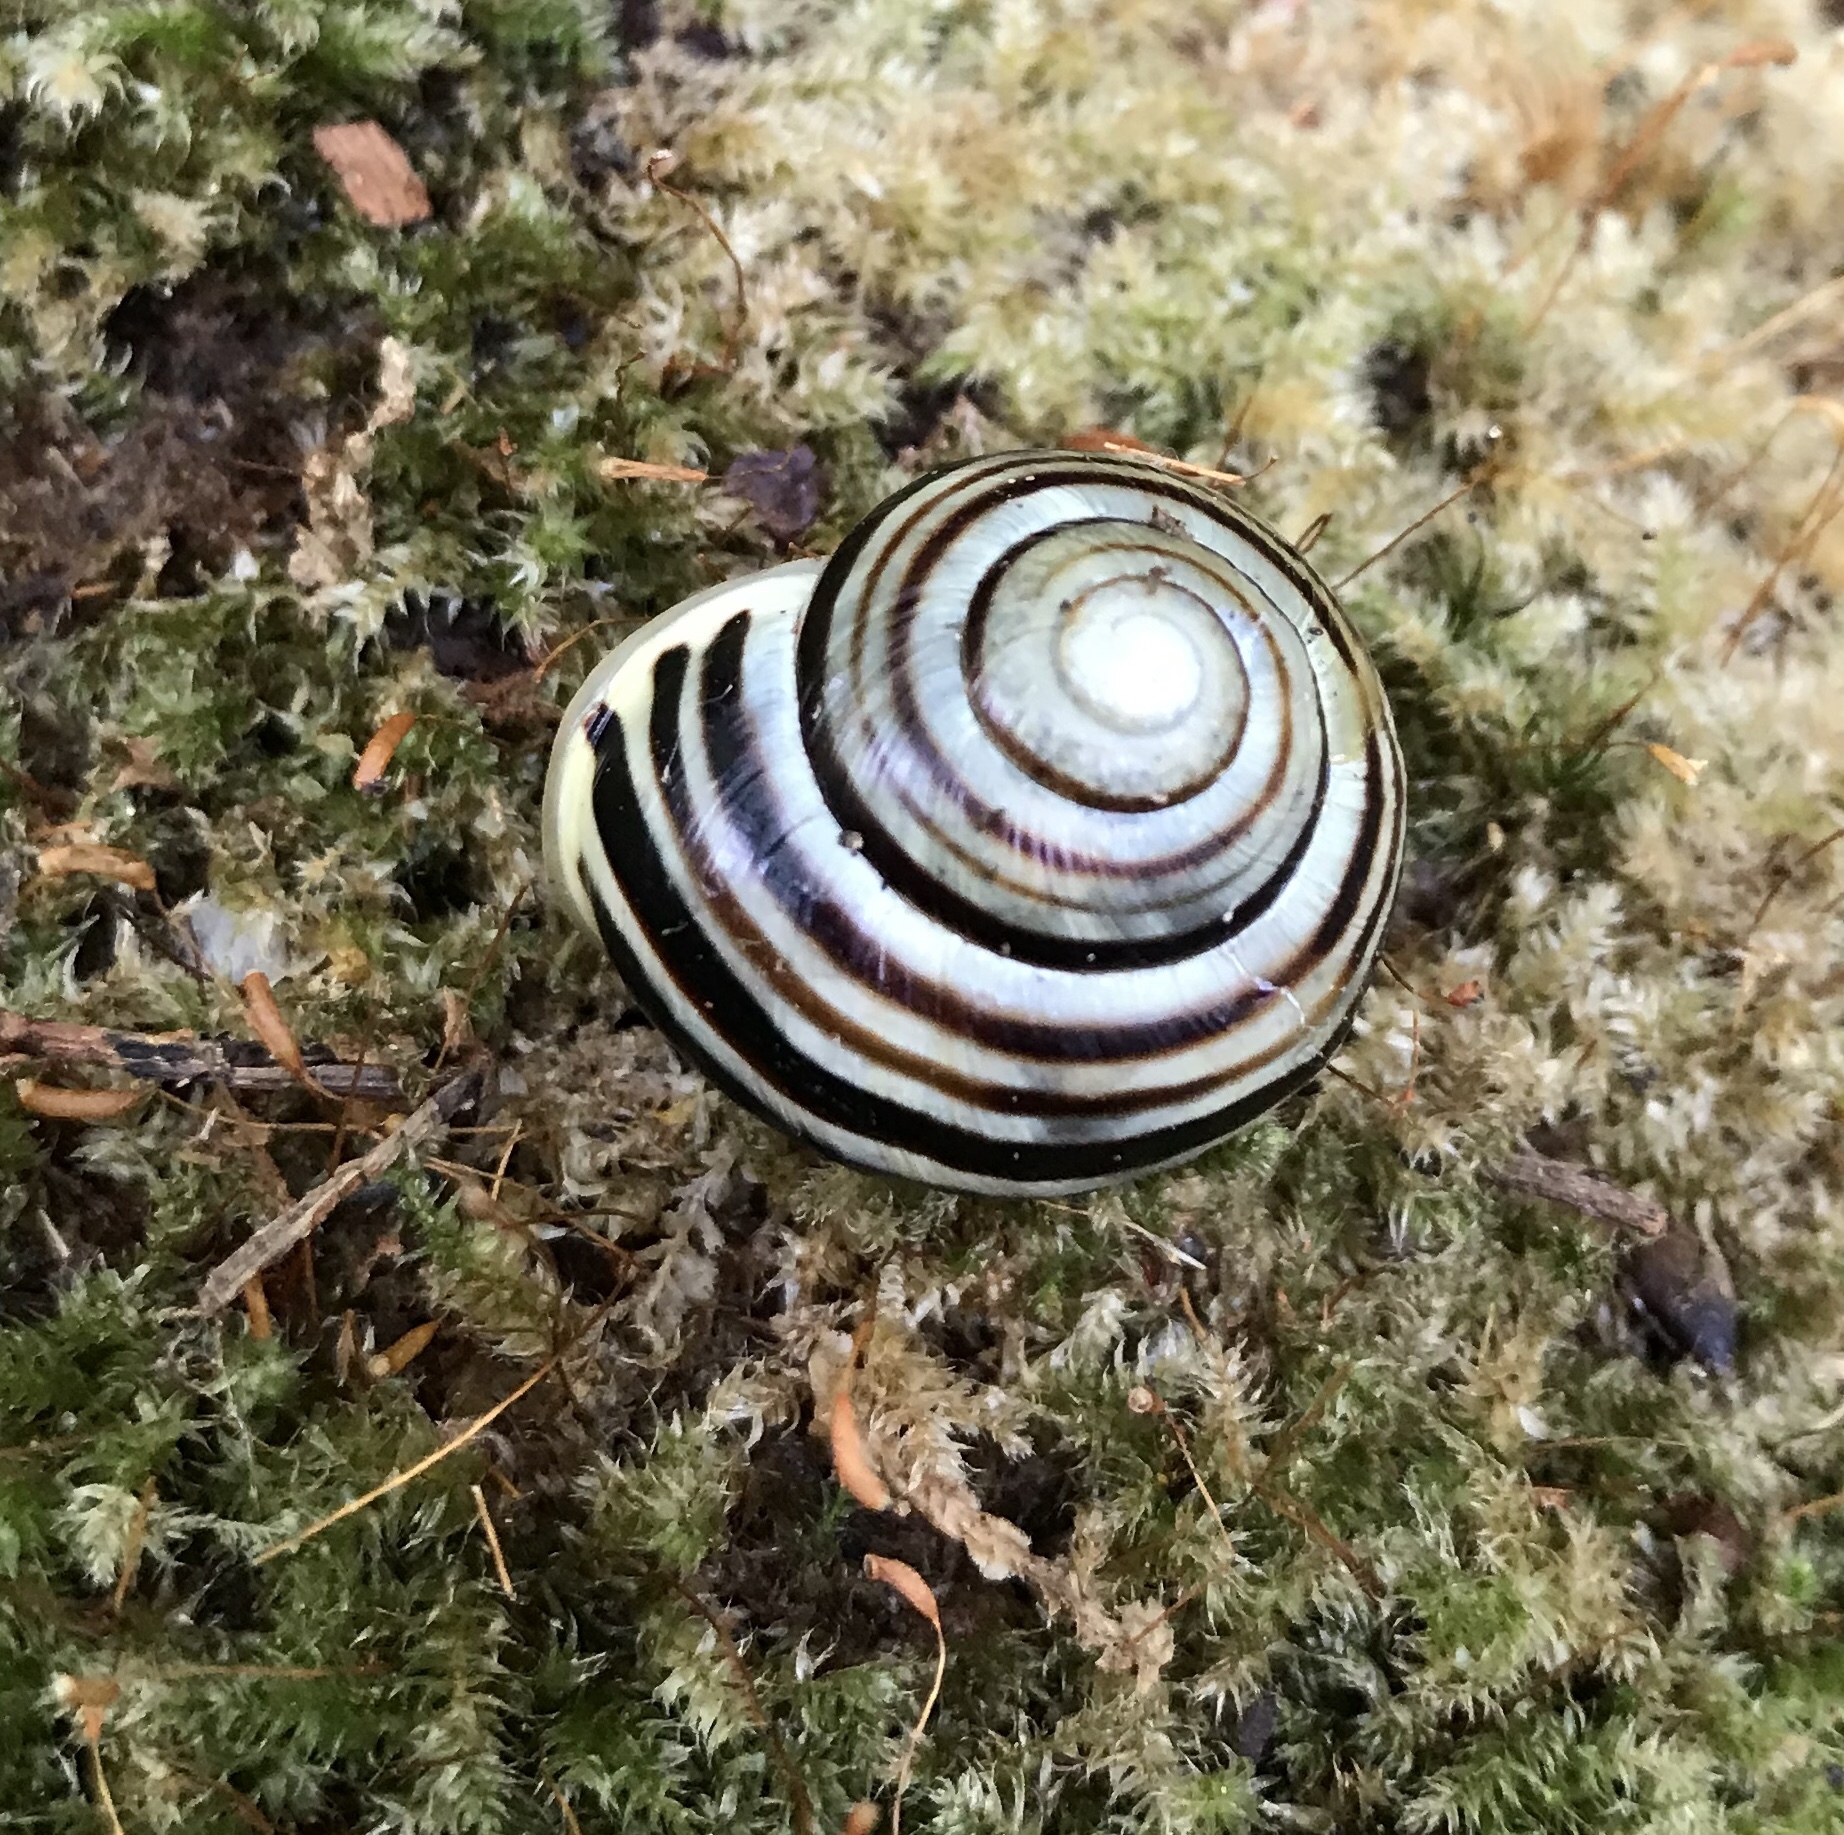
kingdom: Animalia
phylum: Mollusca
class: Gastropoda
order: Stylommatophora
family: Helicidae
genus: Cepaea
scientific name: Cepaea hortensis
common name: White-lip gardensnail
